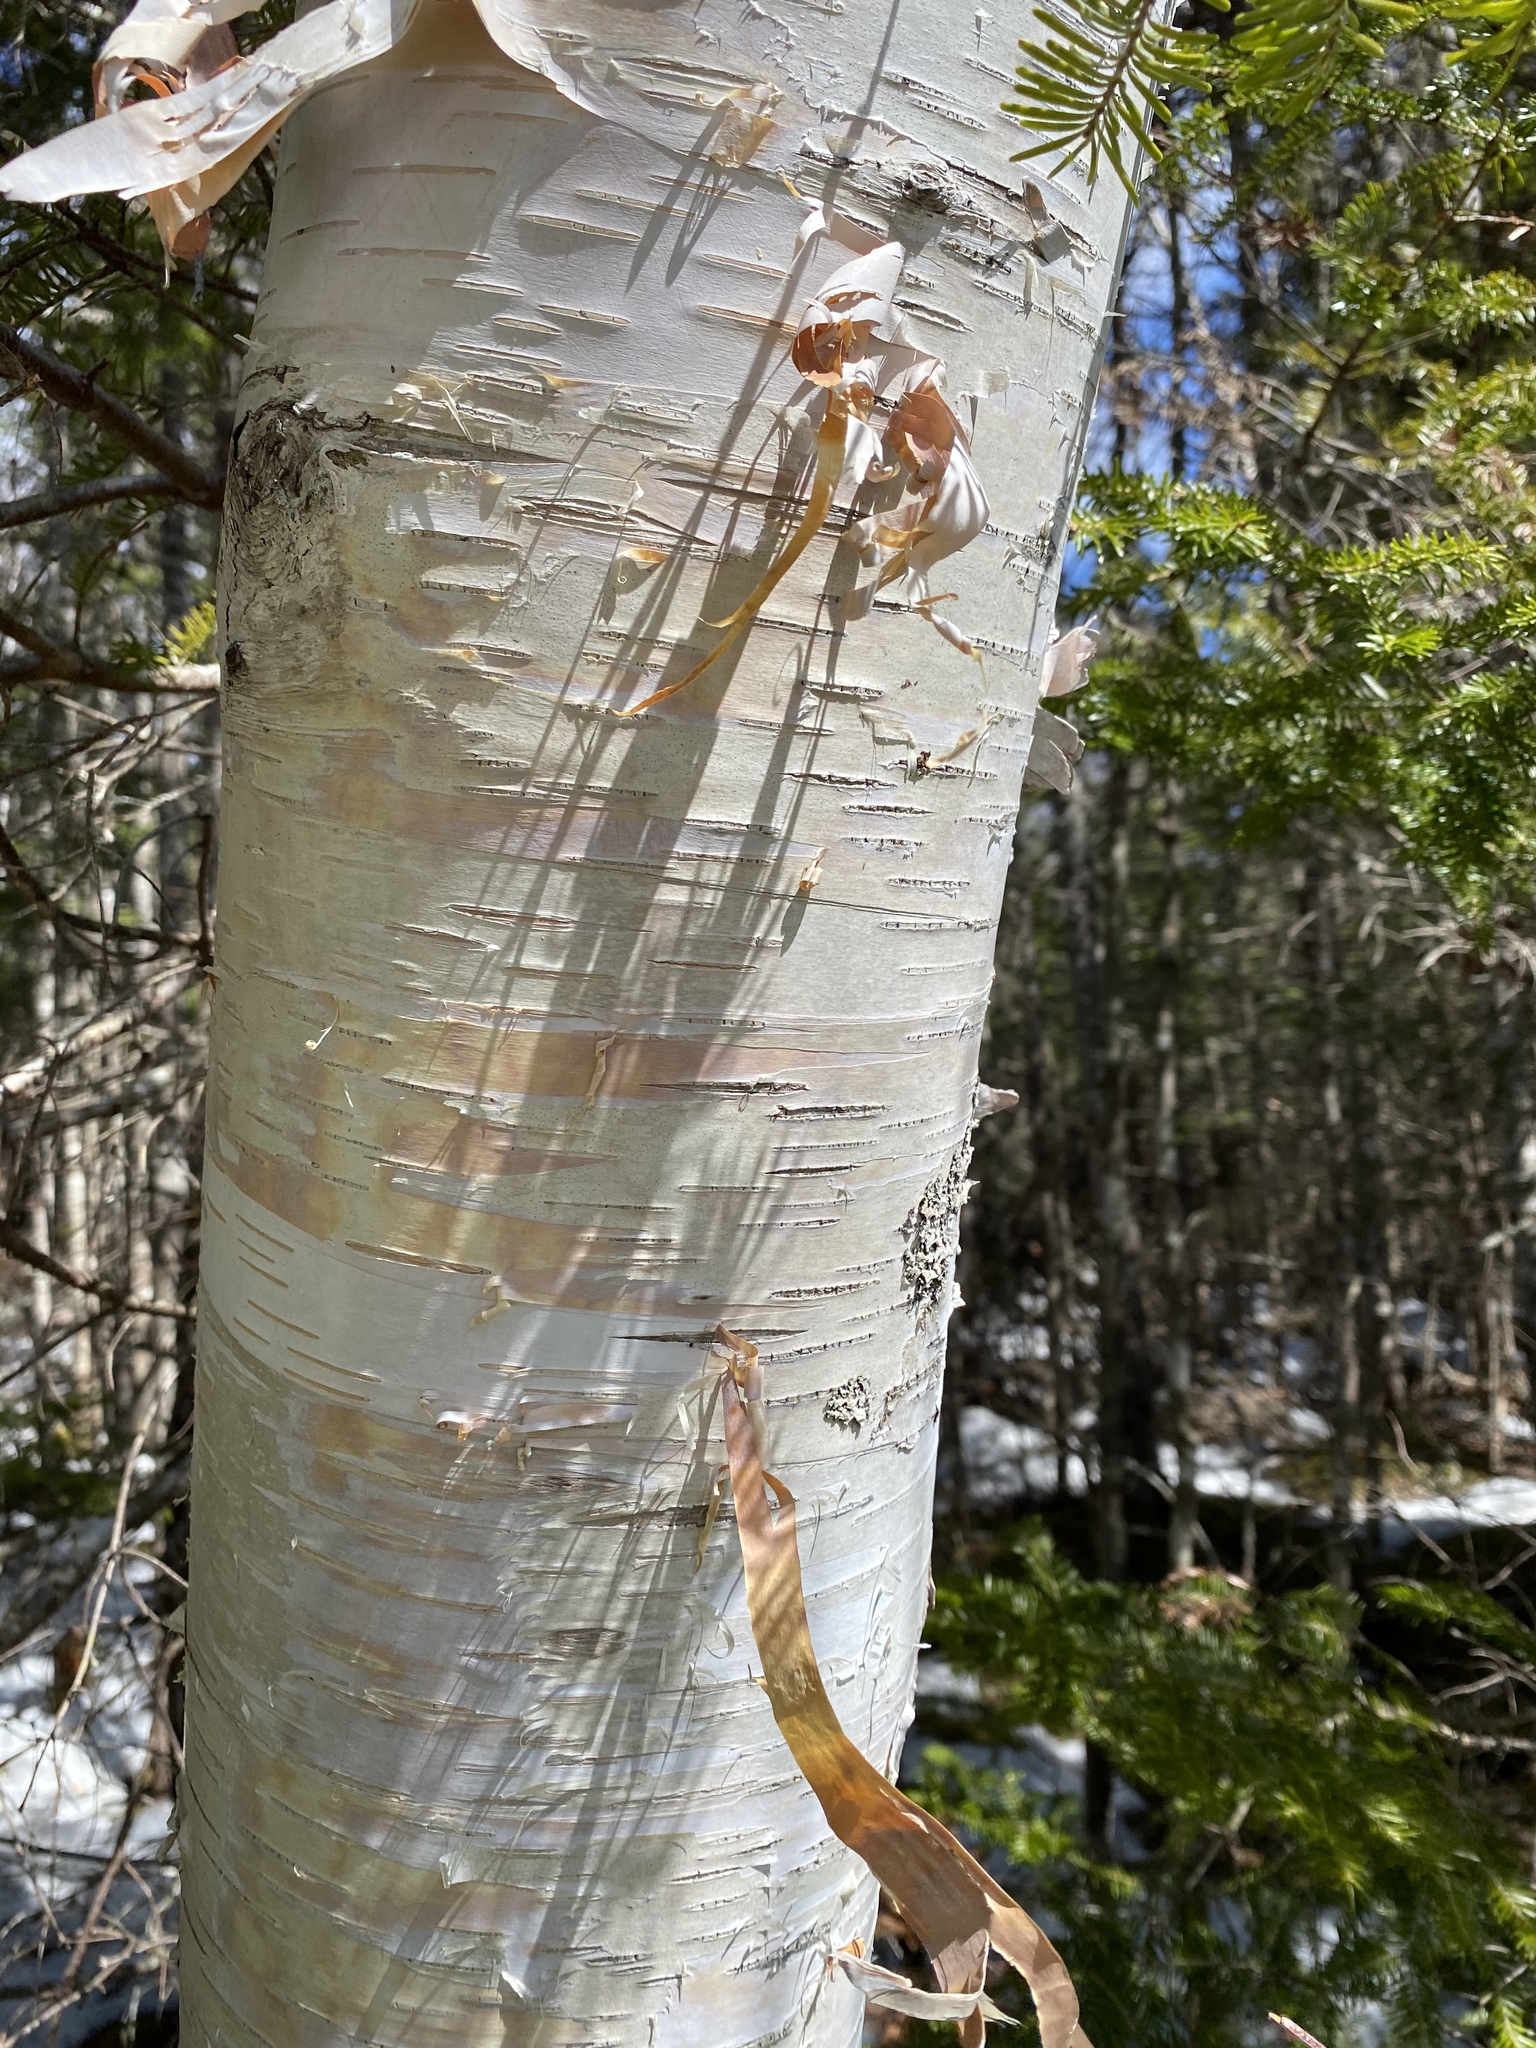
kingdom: Plantae
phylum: Tracheophyta
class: Magnoliopsida
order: Fagales
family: Betulaceae
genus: Betula
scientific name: Betula papyrifera
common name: Paper birch
